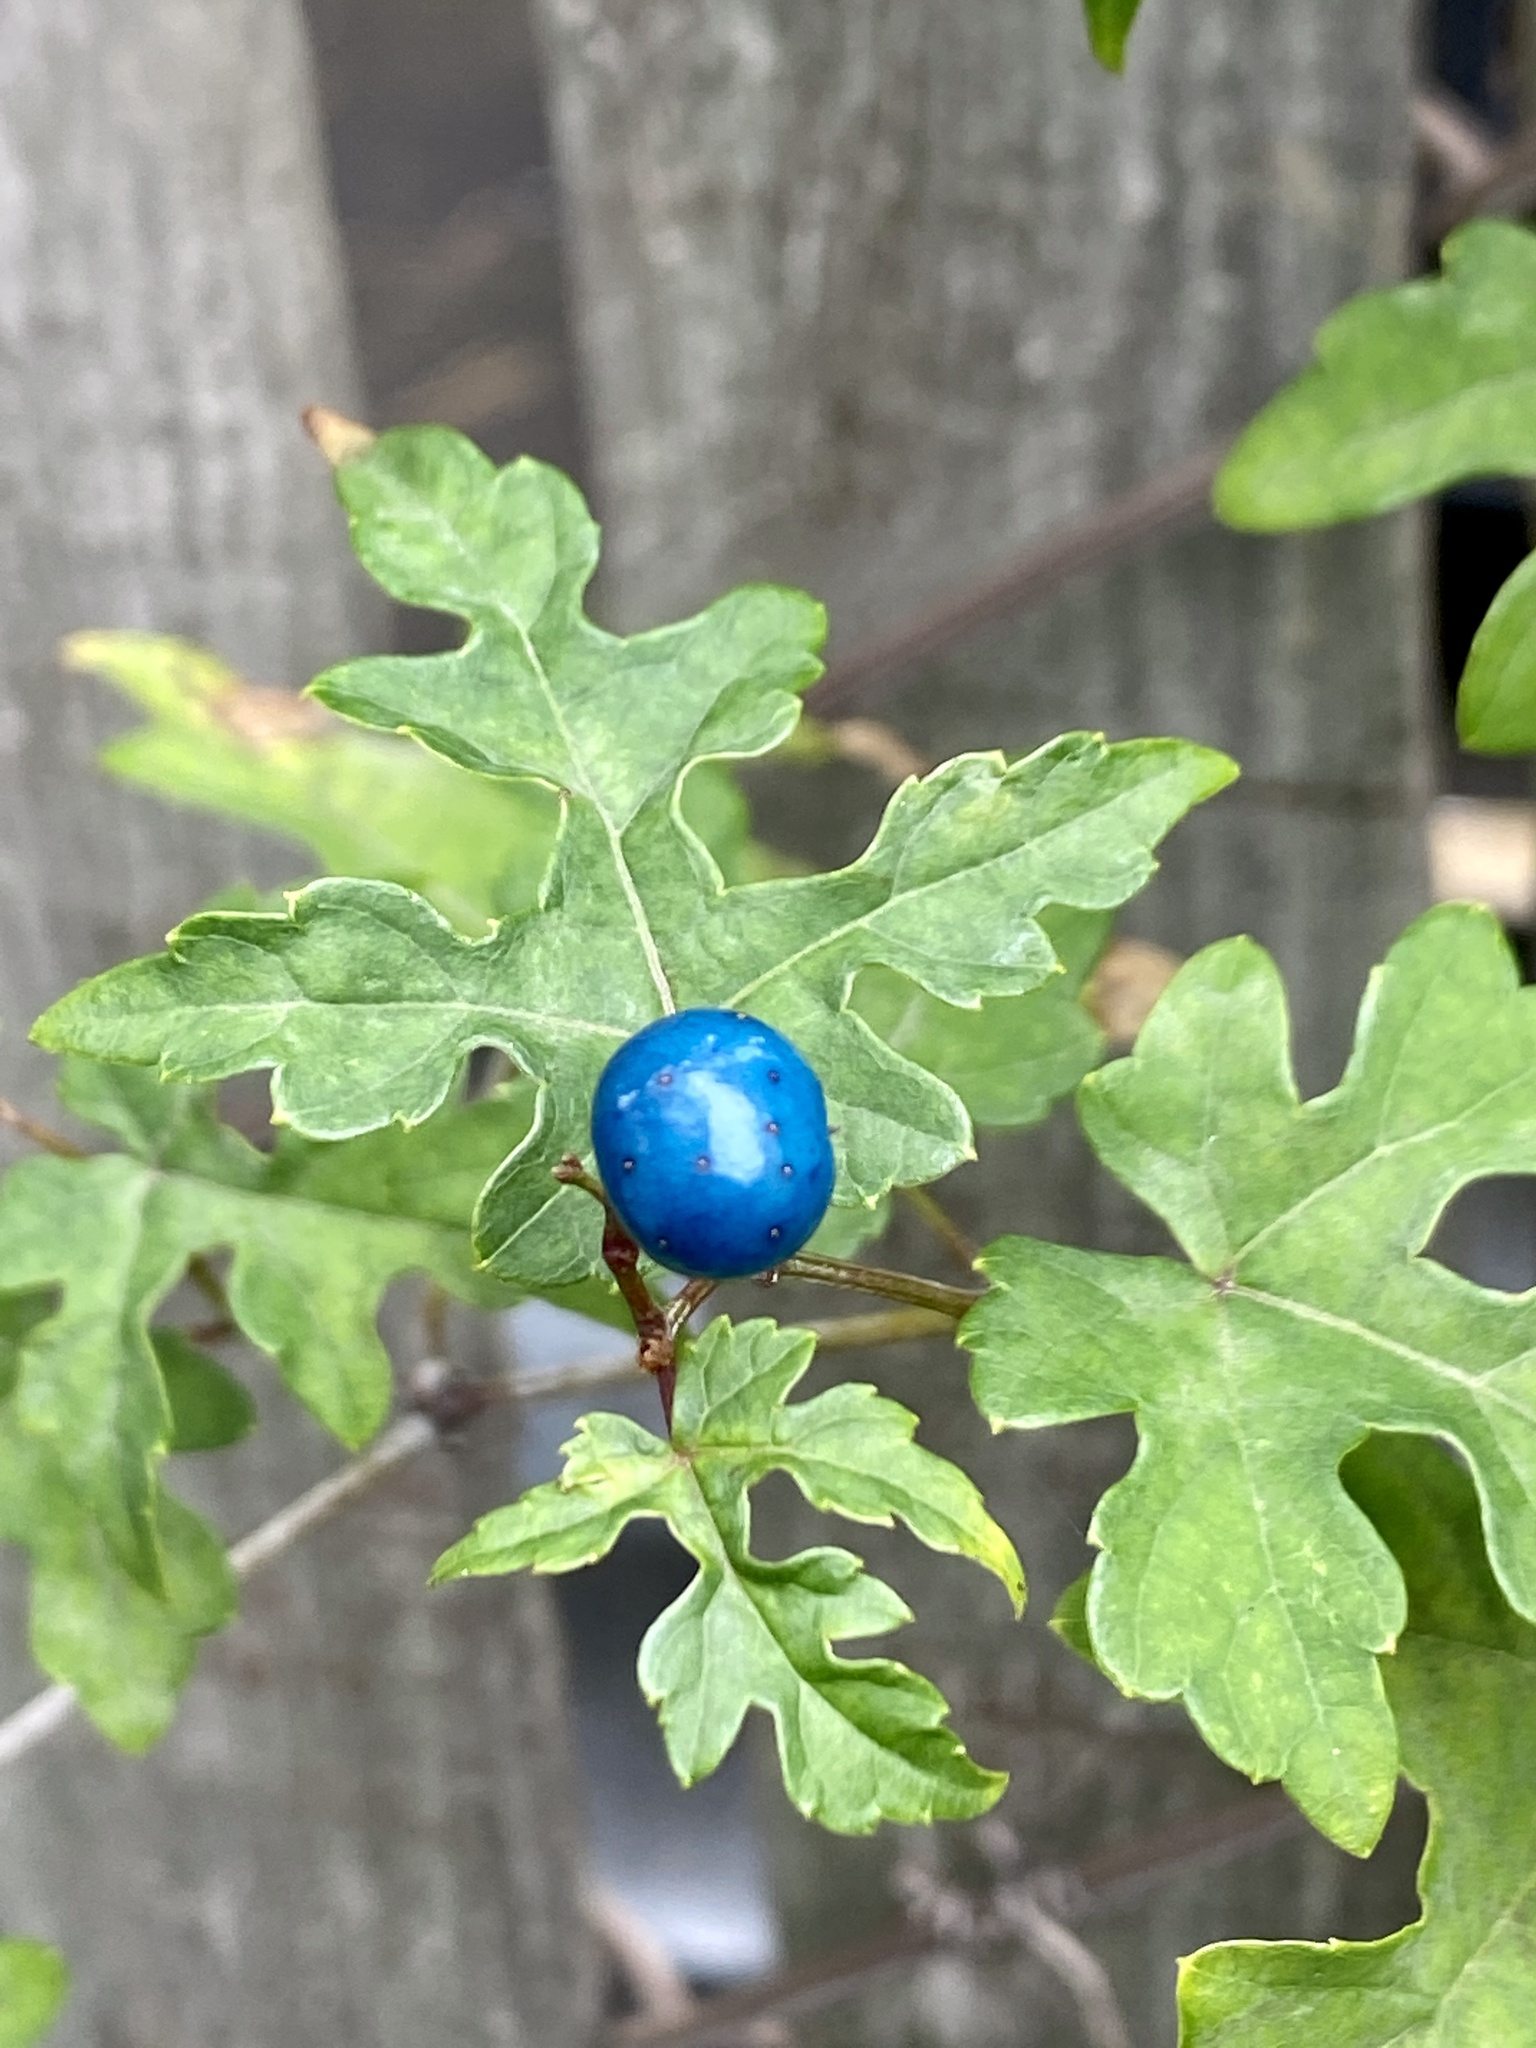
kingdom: Plantae
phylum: Tracheophyta
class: Magnoliopsida
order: Vitales
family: Vitaceae
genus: Ampelopsis
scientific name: Ampelopsis glandulosa
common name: Amur peppervine
